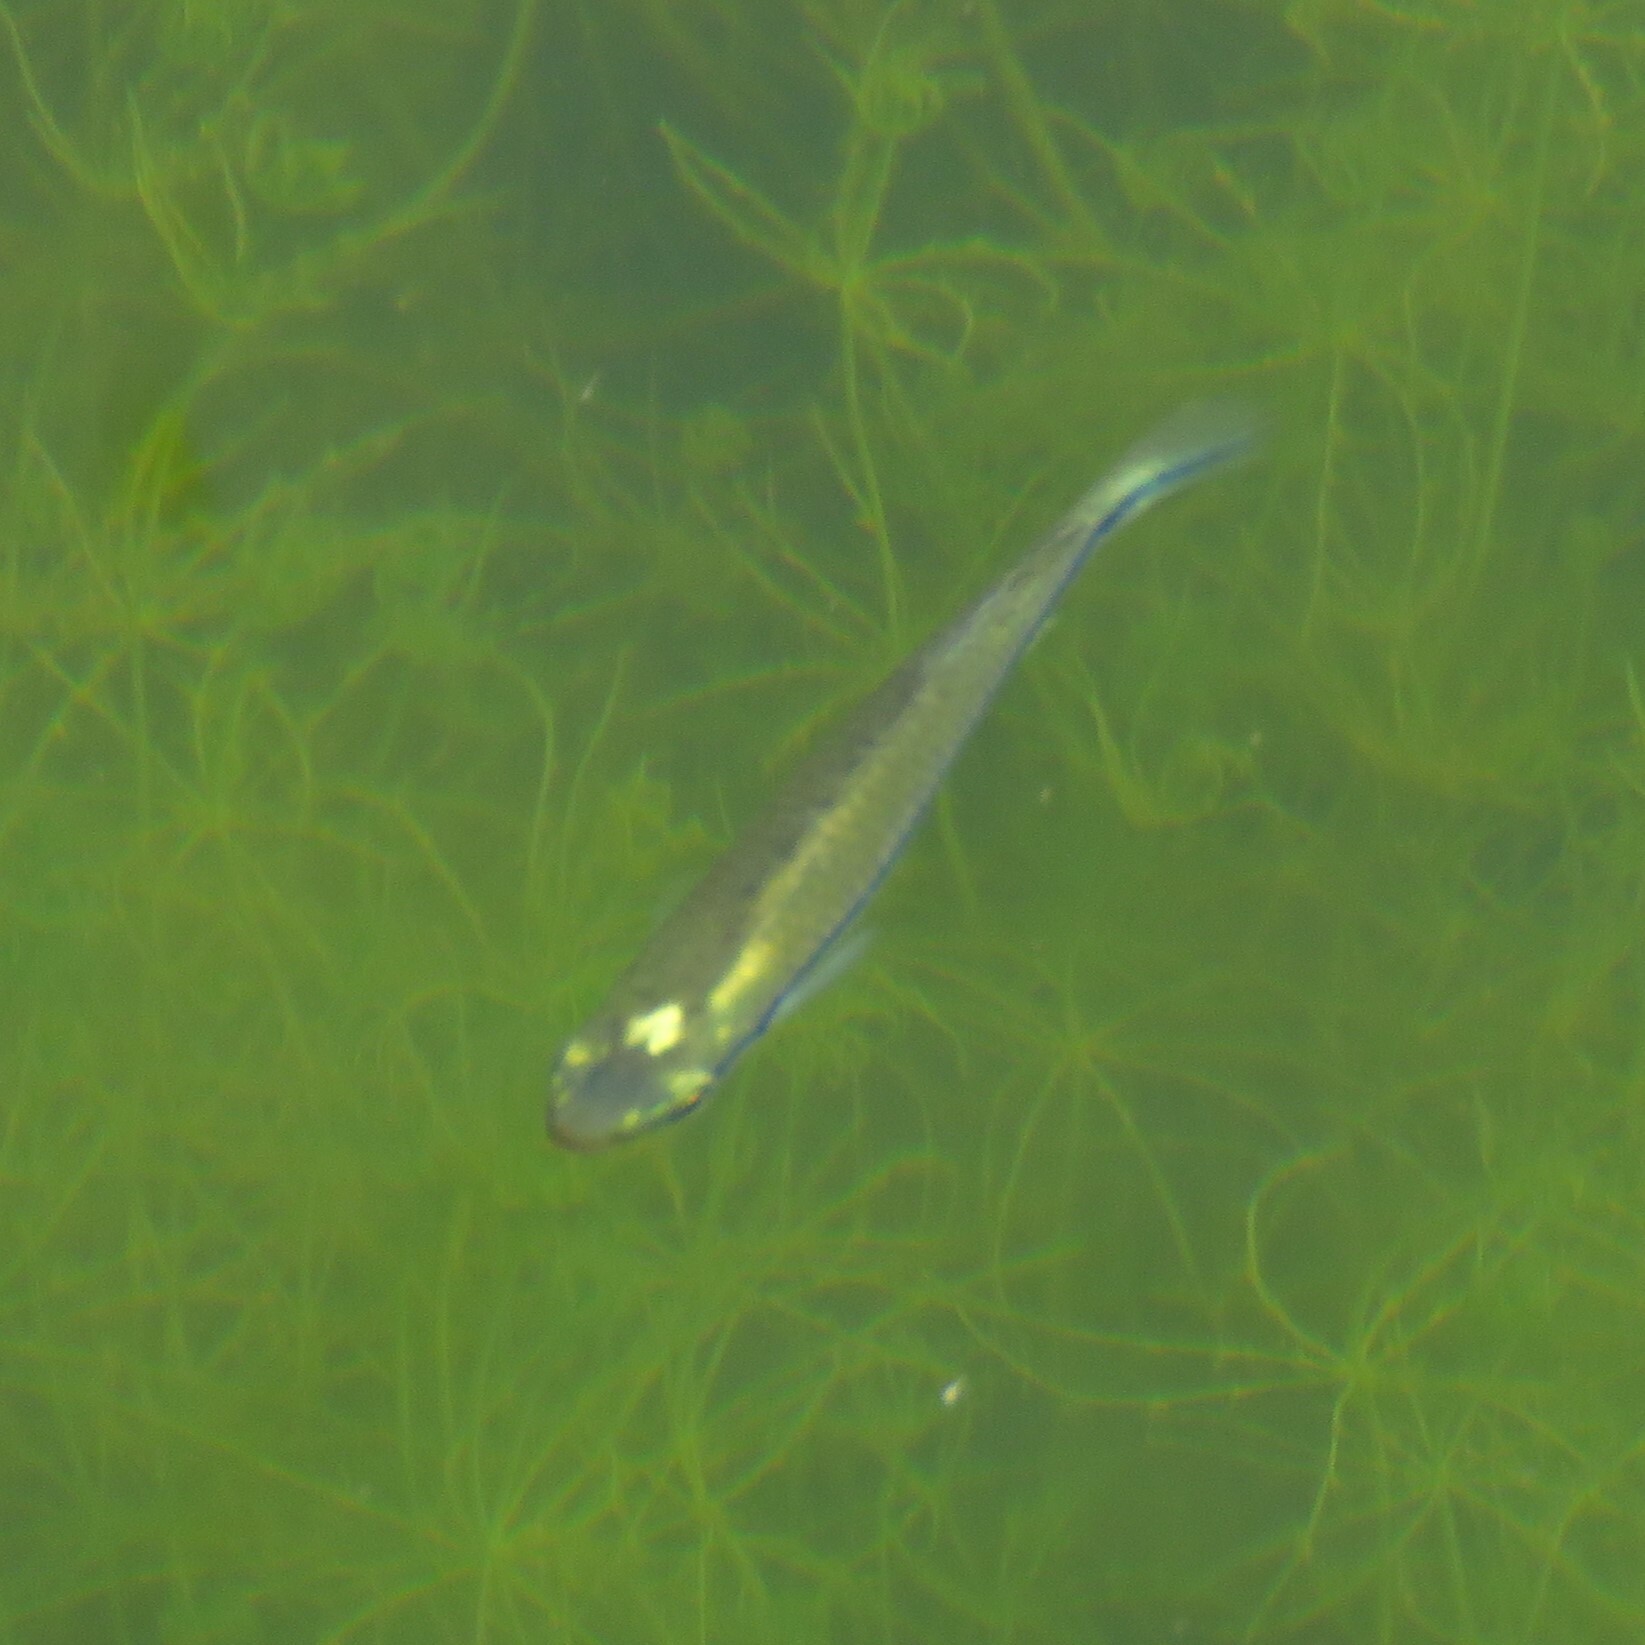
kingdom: Animalia
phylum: Chordata
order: Cyprinodontiformes
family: Fundulidae
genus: Fundulus
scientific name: Fundulus notatus
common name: Blackstripe topminnow
